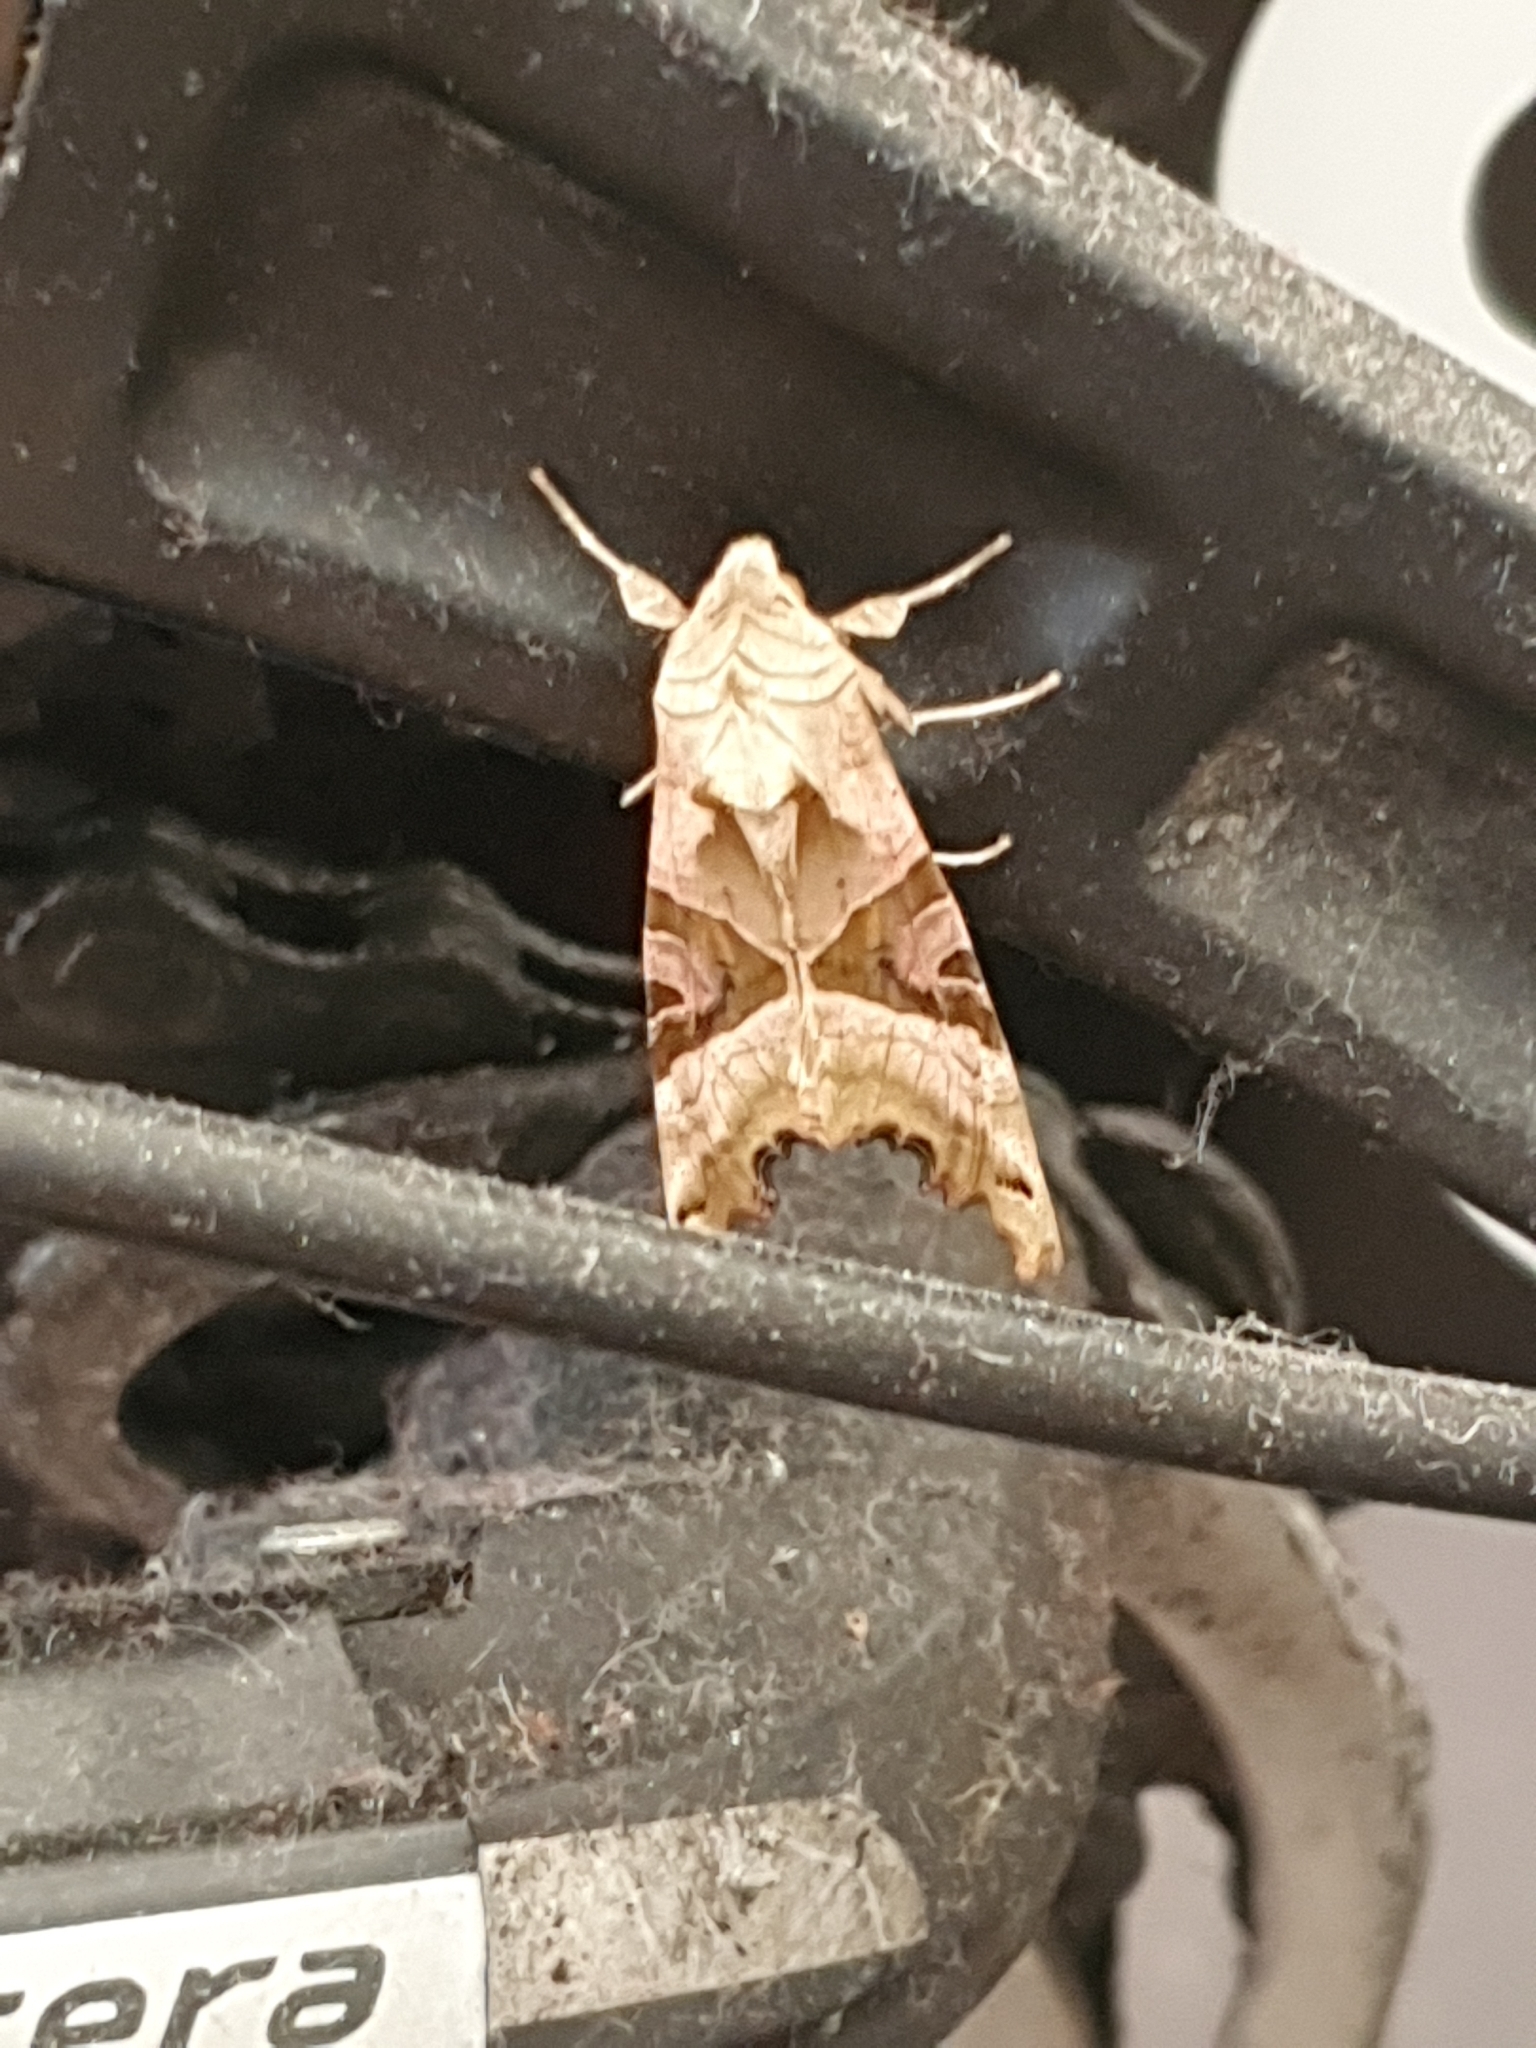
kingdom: Animalia
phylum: Arthropoda
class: Insecta
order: Lepidoptera
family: Noctuidae
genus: Phlogophora
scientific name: Phlogophora meticulosa
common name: Angle shades
